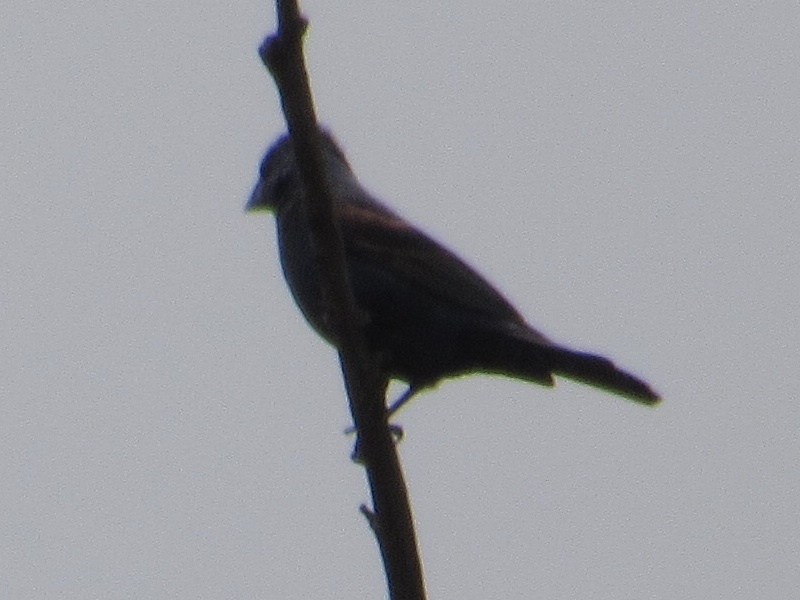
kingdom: Animalia
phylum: Chordata
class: Aves
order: Passeriformes
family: Cardinalidae
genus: Passerina
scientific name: Passerina caerulea
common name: Blue grosbeak
